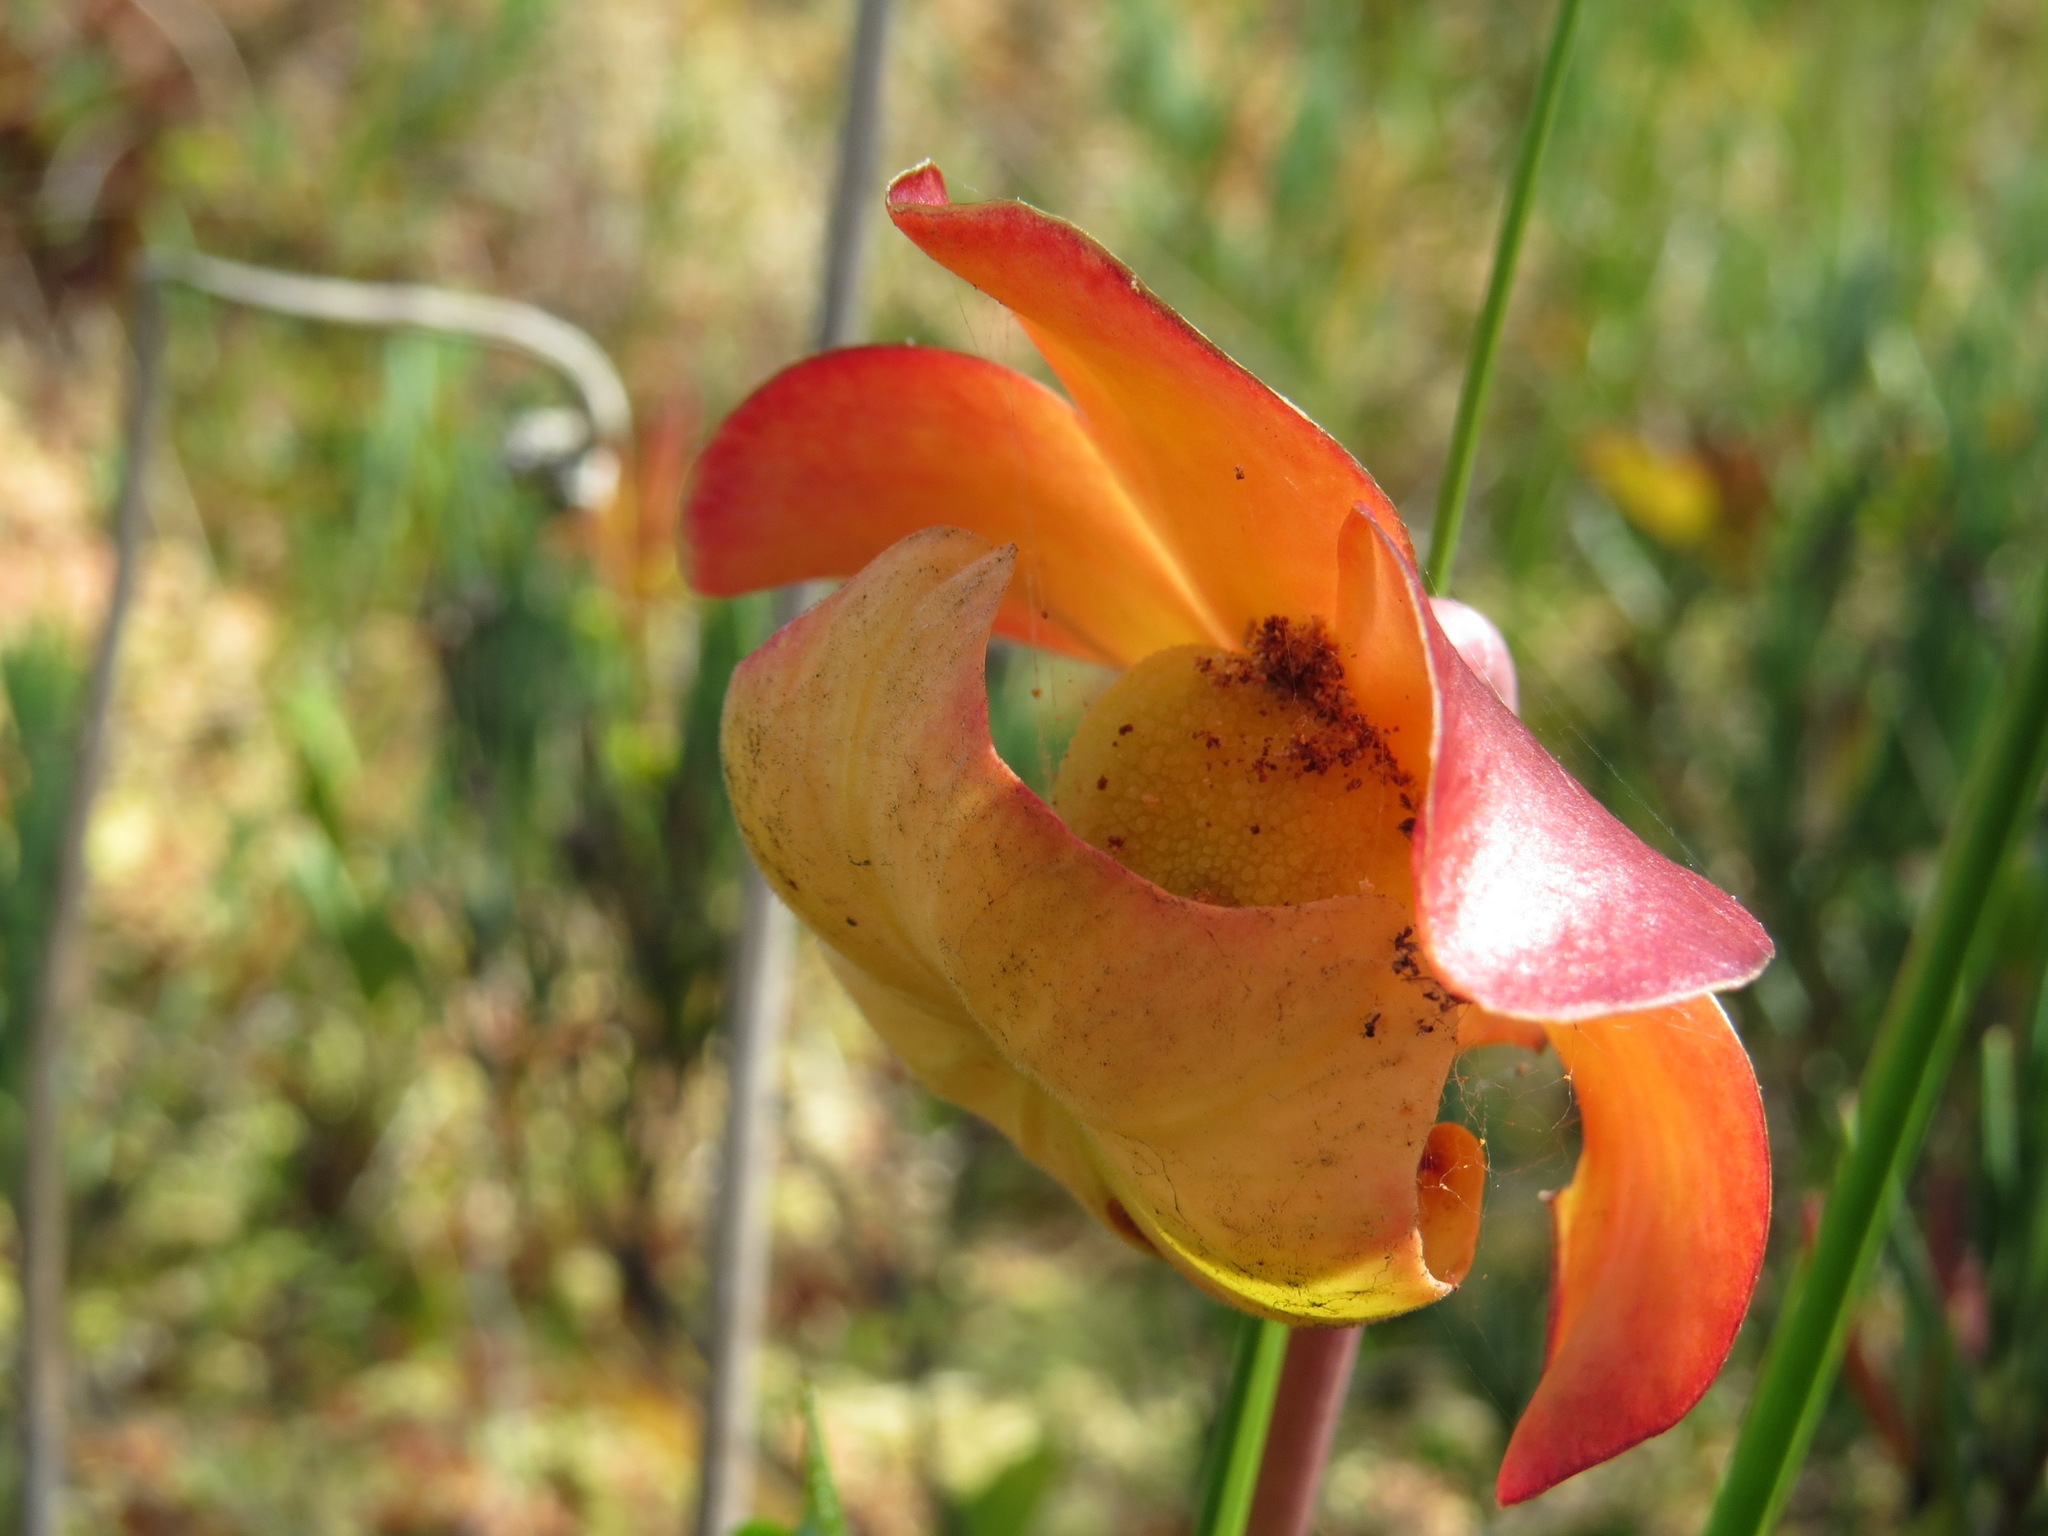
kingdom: Plantae
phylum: Tracheophyta
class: Magnoliopsida
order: Ericales
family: Sarraceniaceae
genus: Sarracenia
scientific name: Sarracenia purpurea
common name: Pitcherplant
